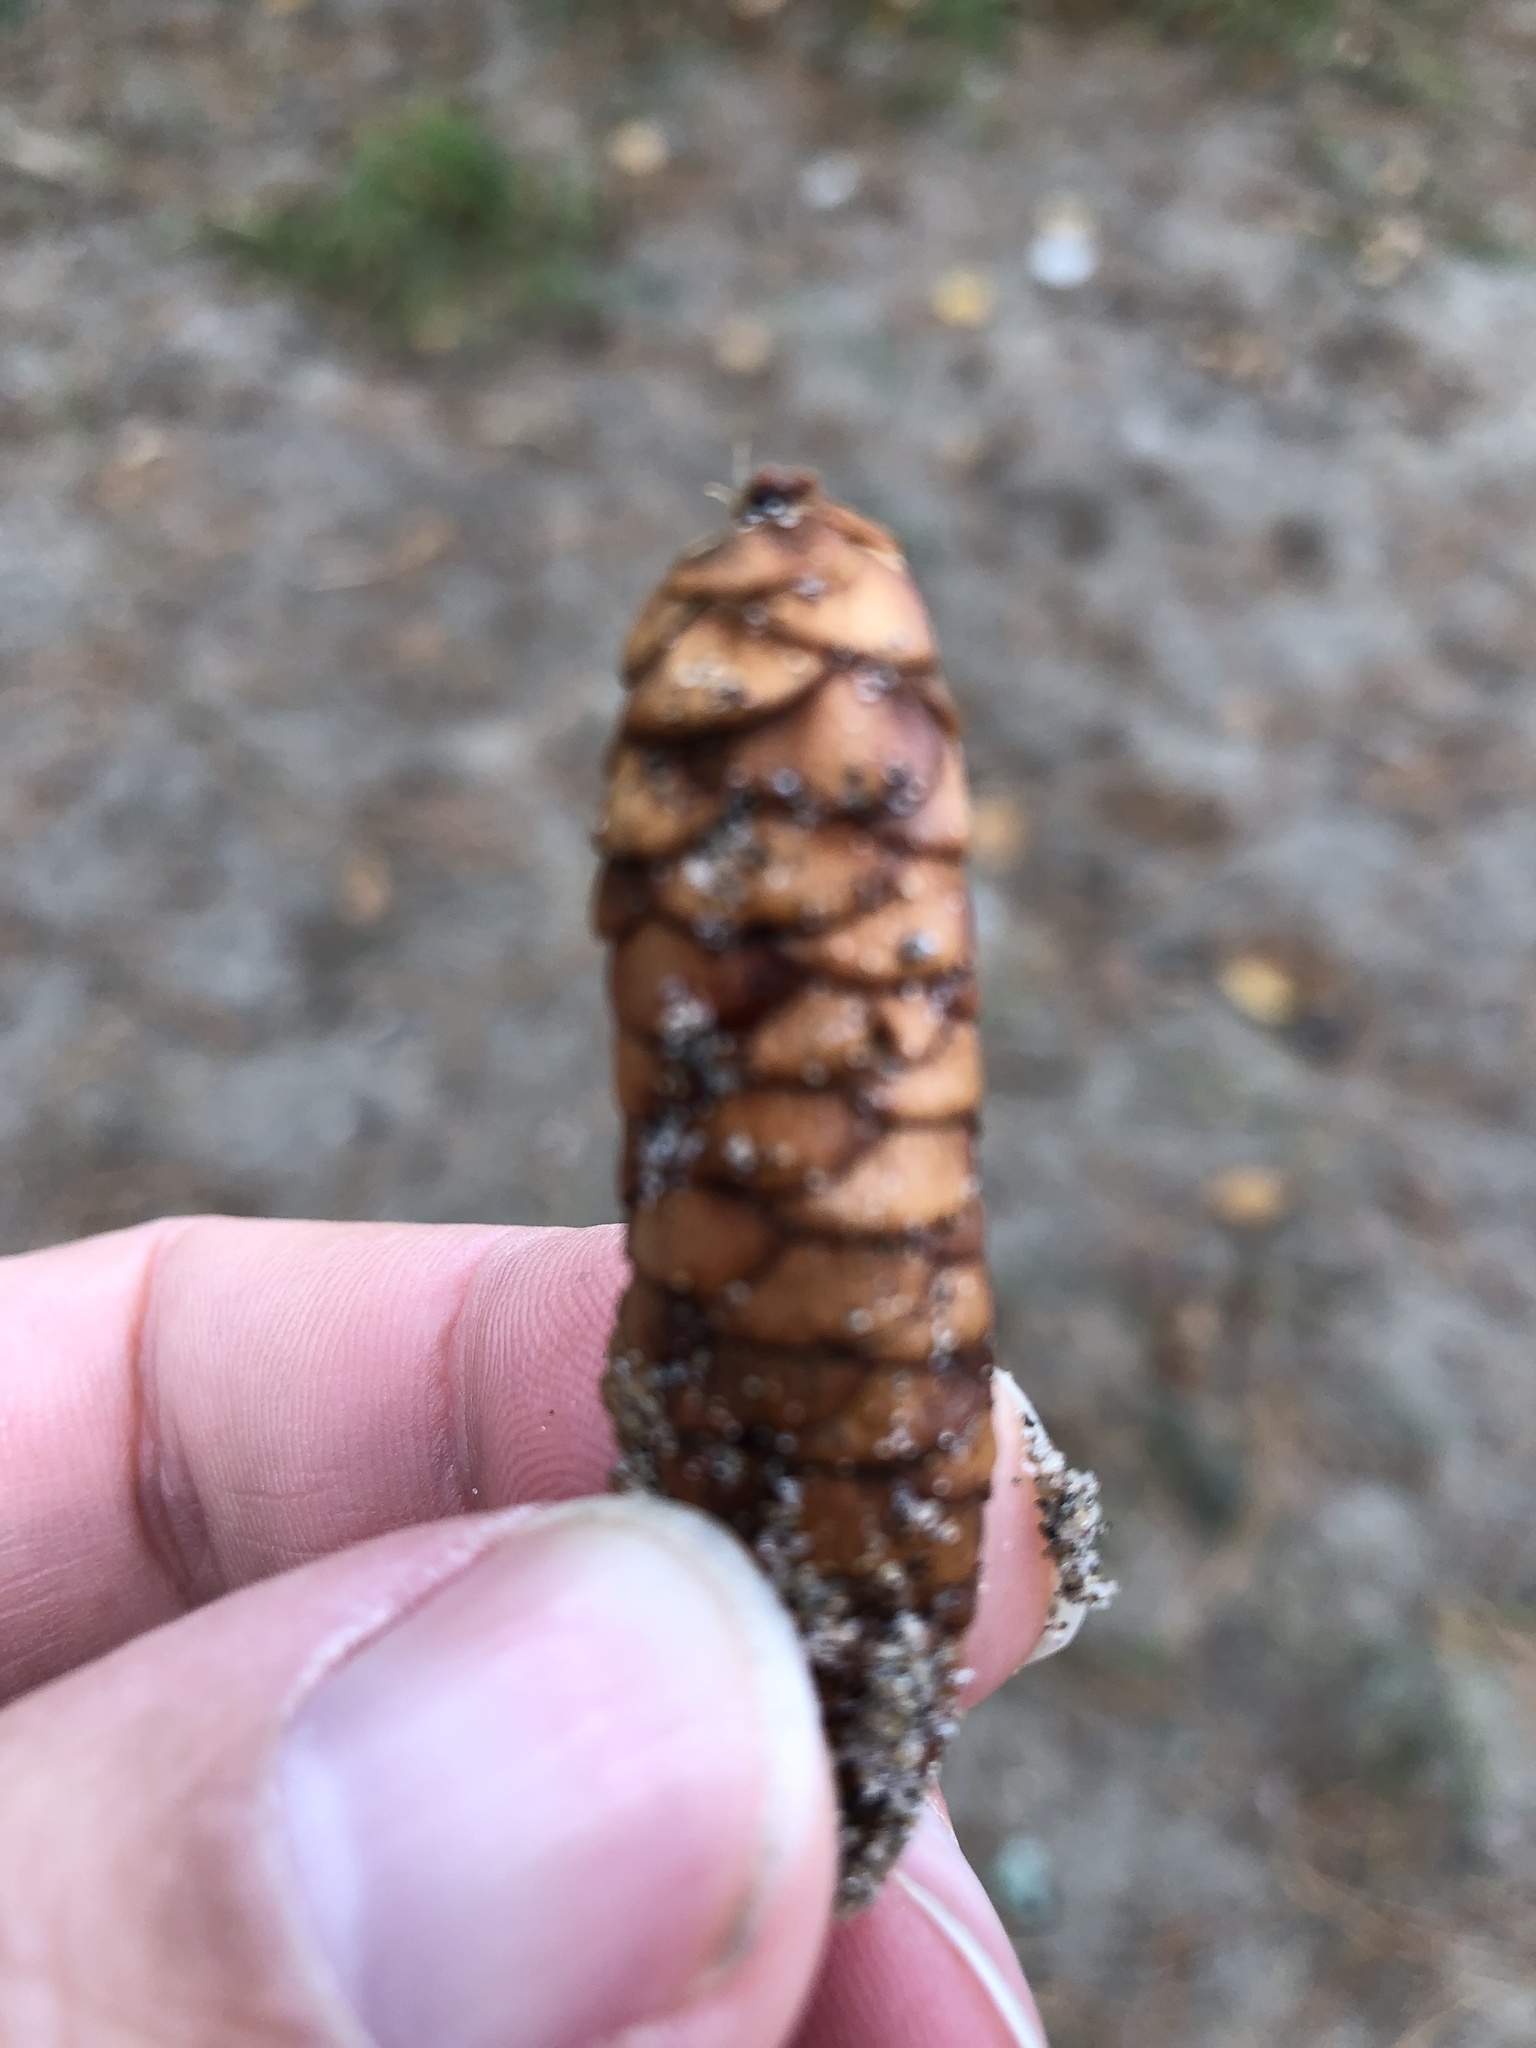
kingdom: Plantae
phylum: Tracheophyta
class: Pinopsida
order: Pinales
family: Pinaceae
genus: Picea
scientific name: Picea glauca
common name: White spruce
